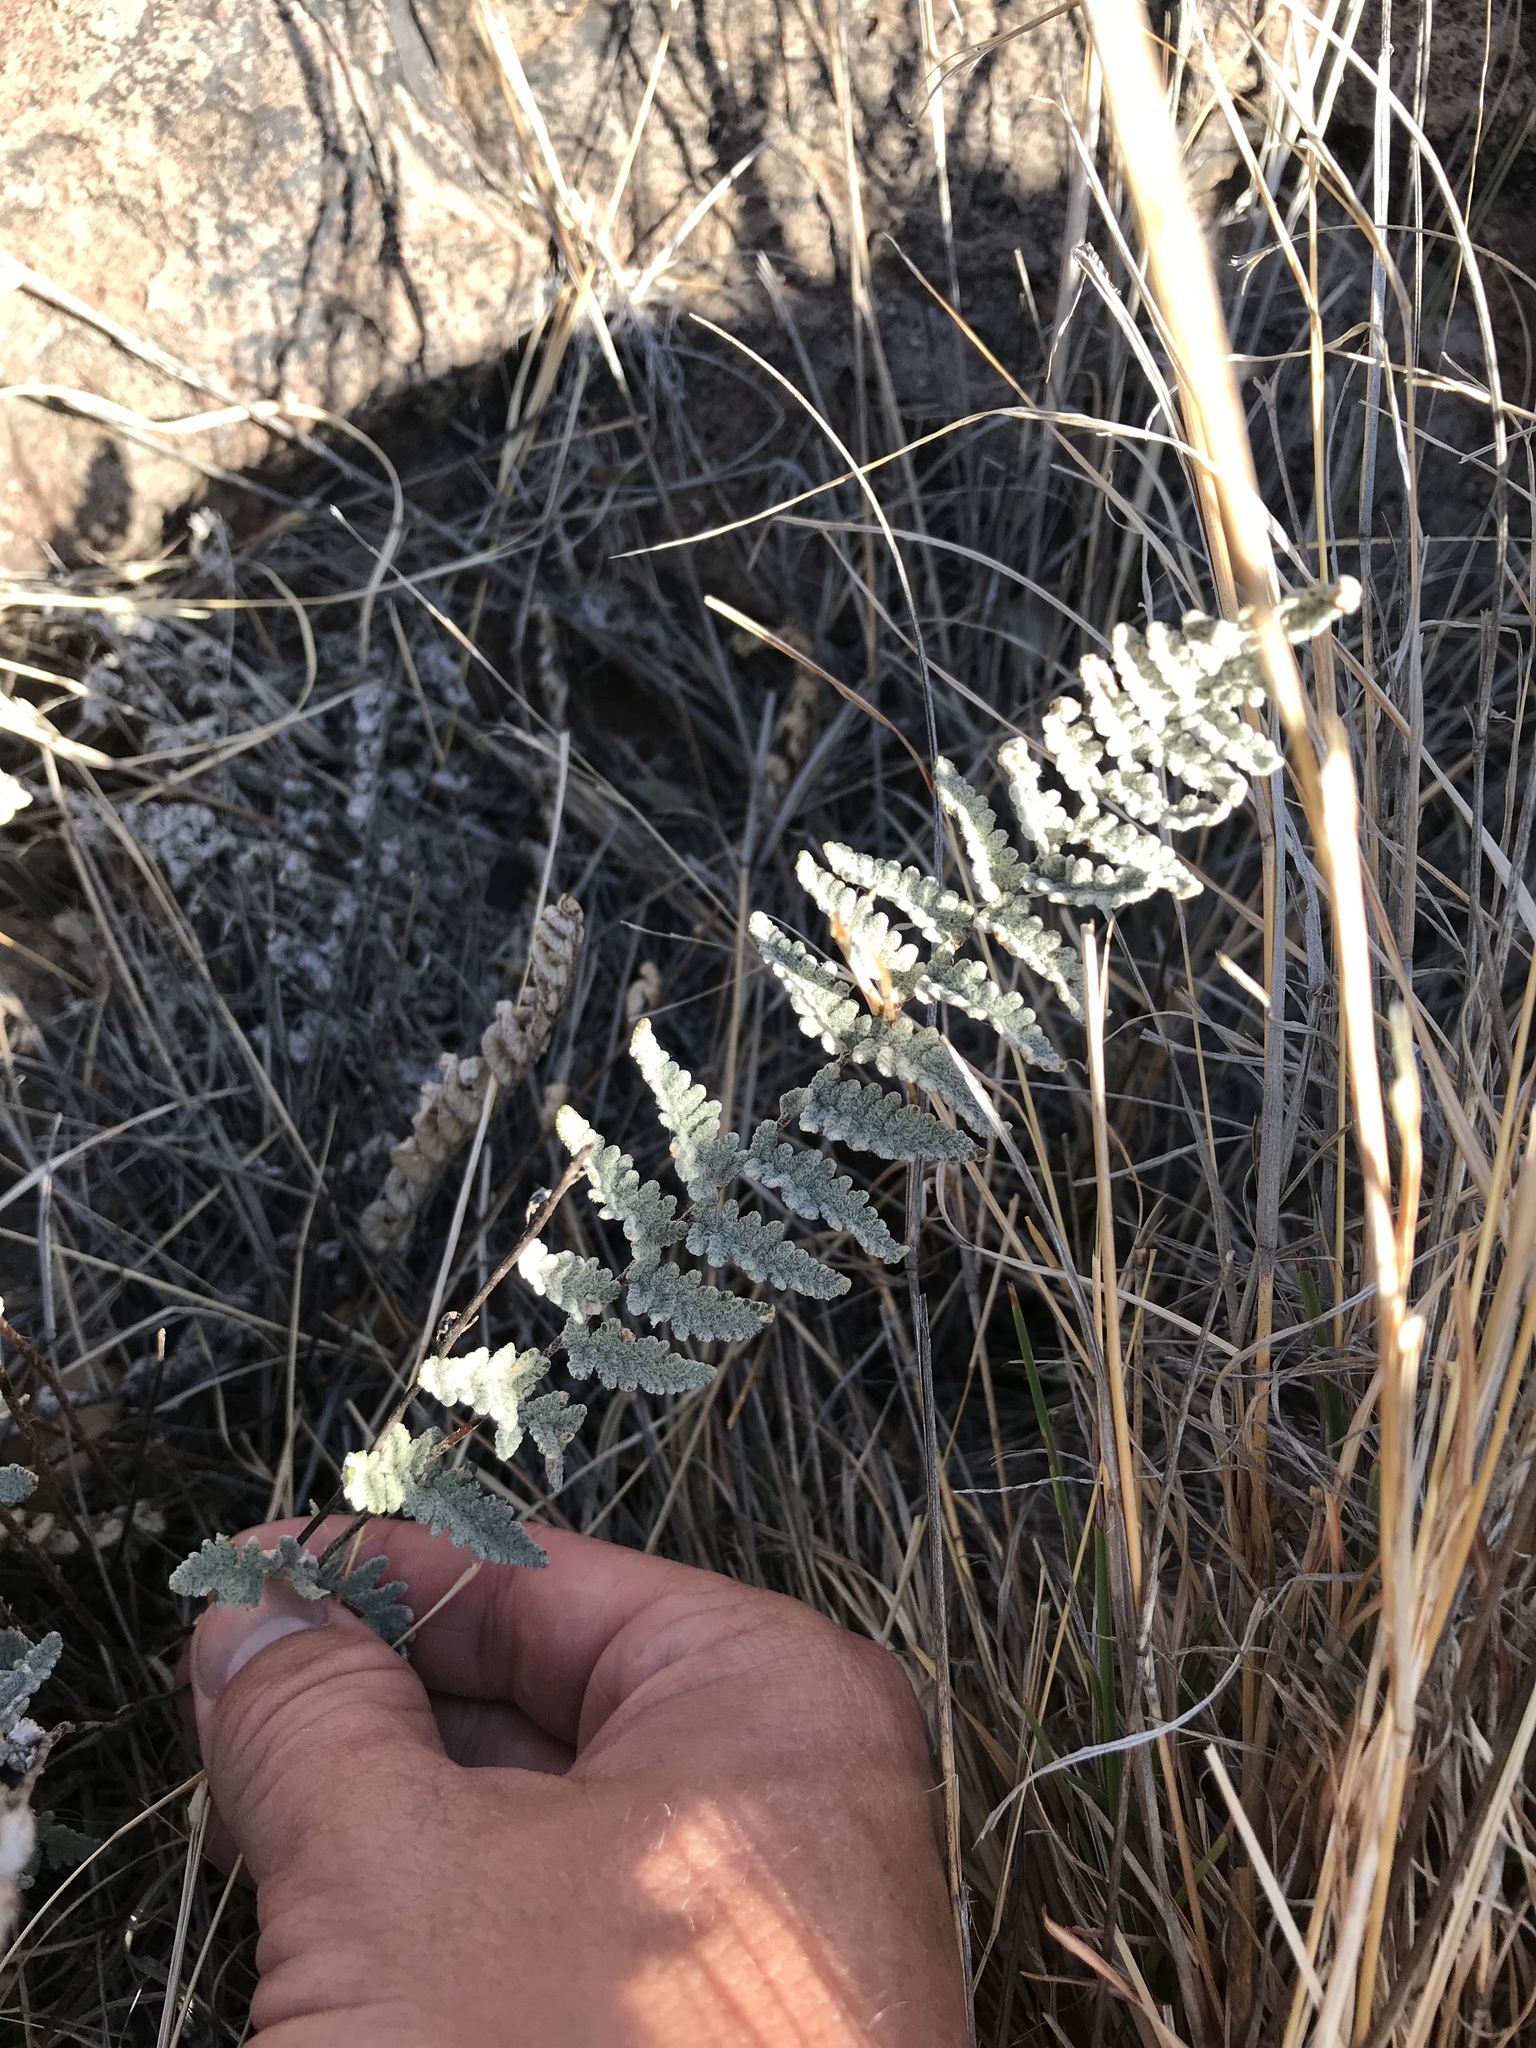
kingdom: Plantae
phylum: Tracheophyta
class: Polypodiopsida
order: Polypodiales
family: Pteridaceae
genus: Myriopteris
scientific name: Myriopteris rufa
